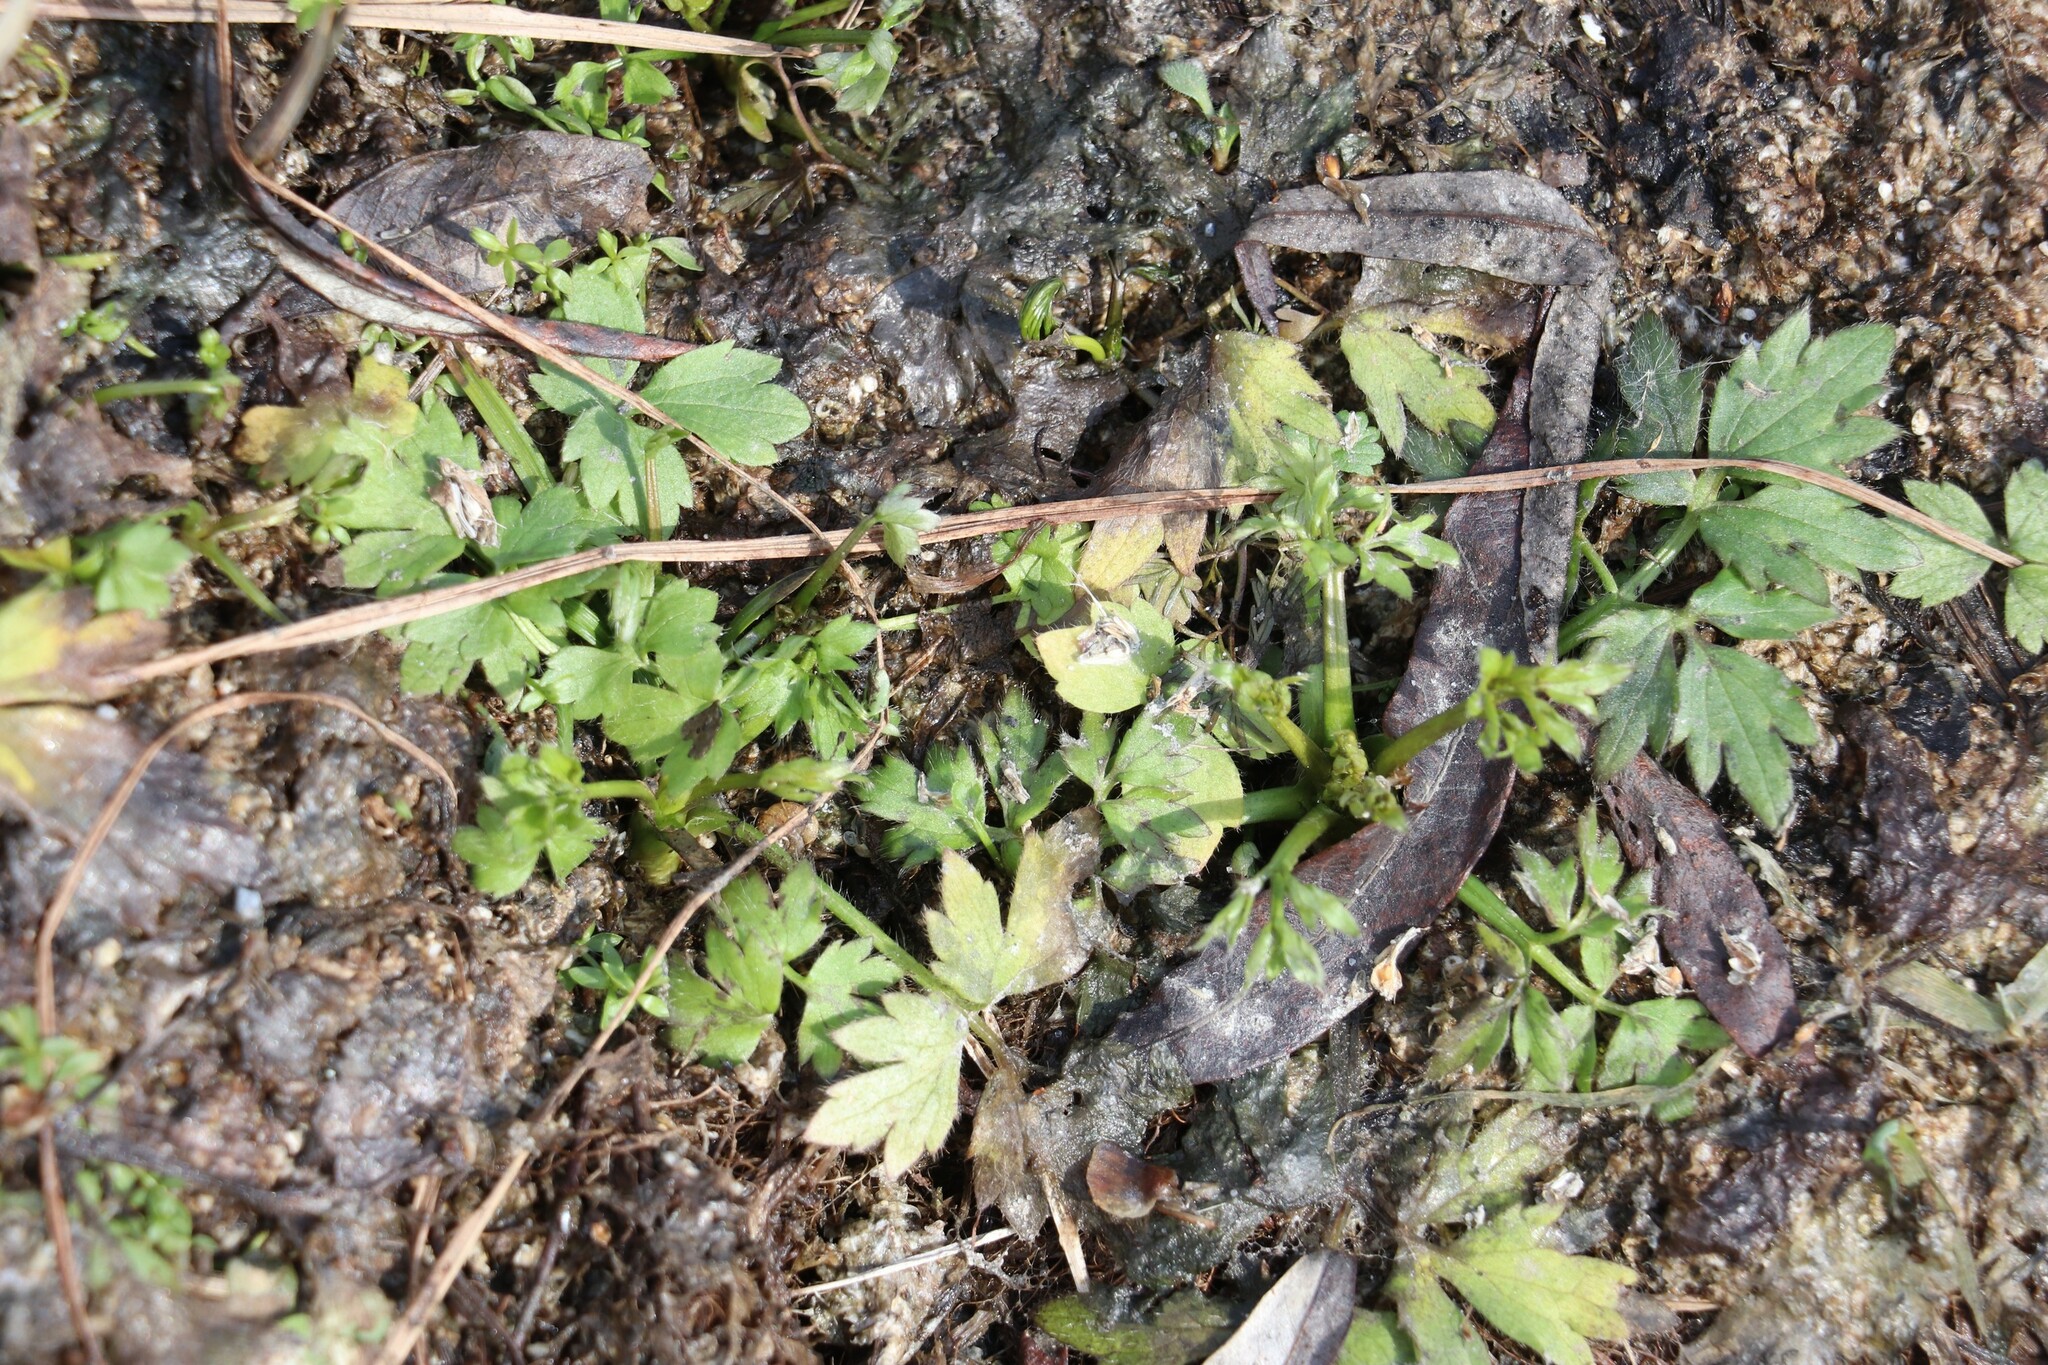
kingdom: Plantae
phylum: Tracheophyta
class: Magnoliopsida
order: Ranunculales
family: Ranunculaceae
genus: Ranunculus
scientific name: Ranunculus repens
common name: Creeping buttercup
